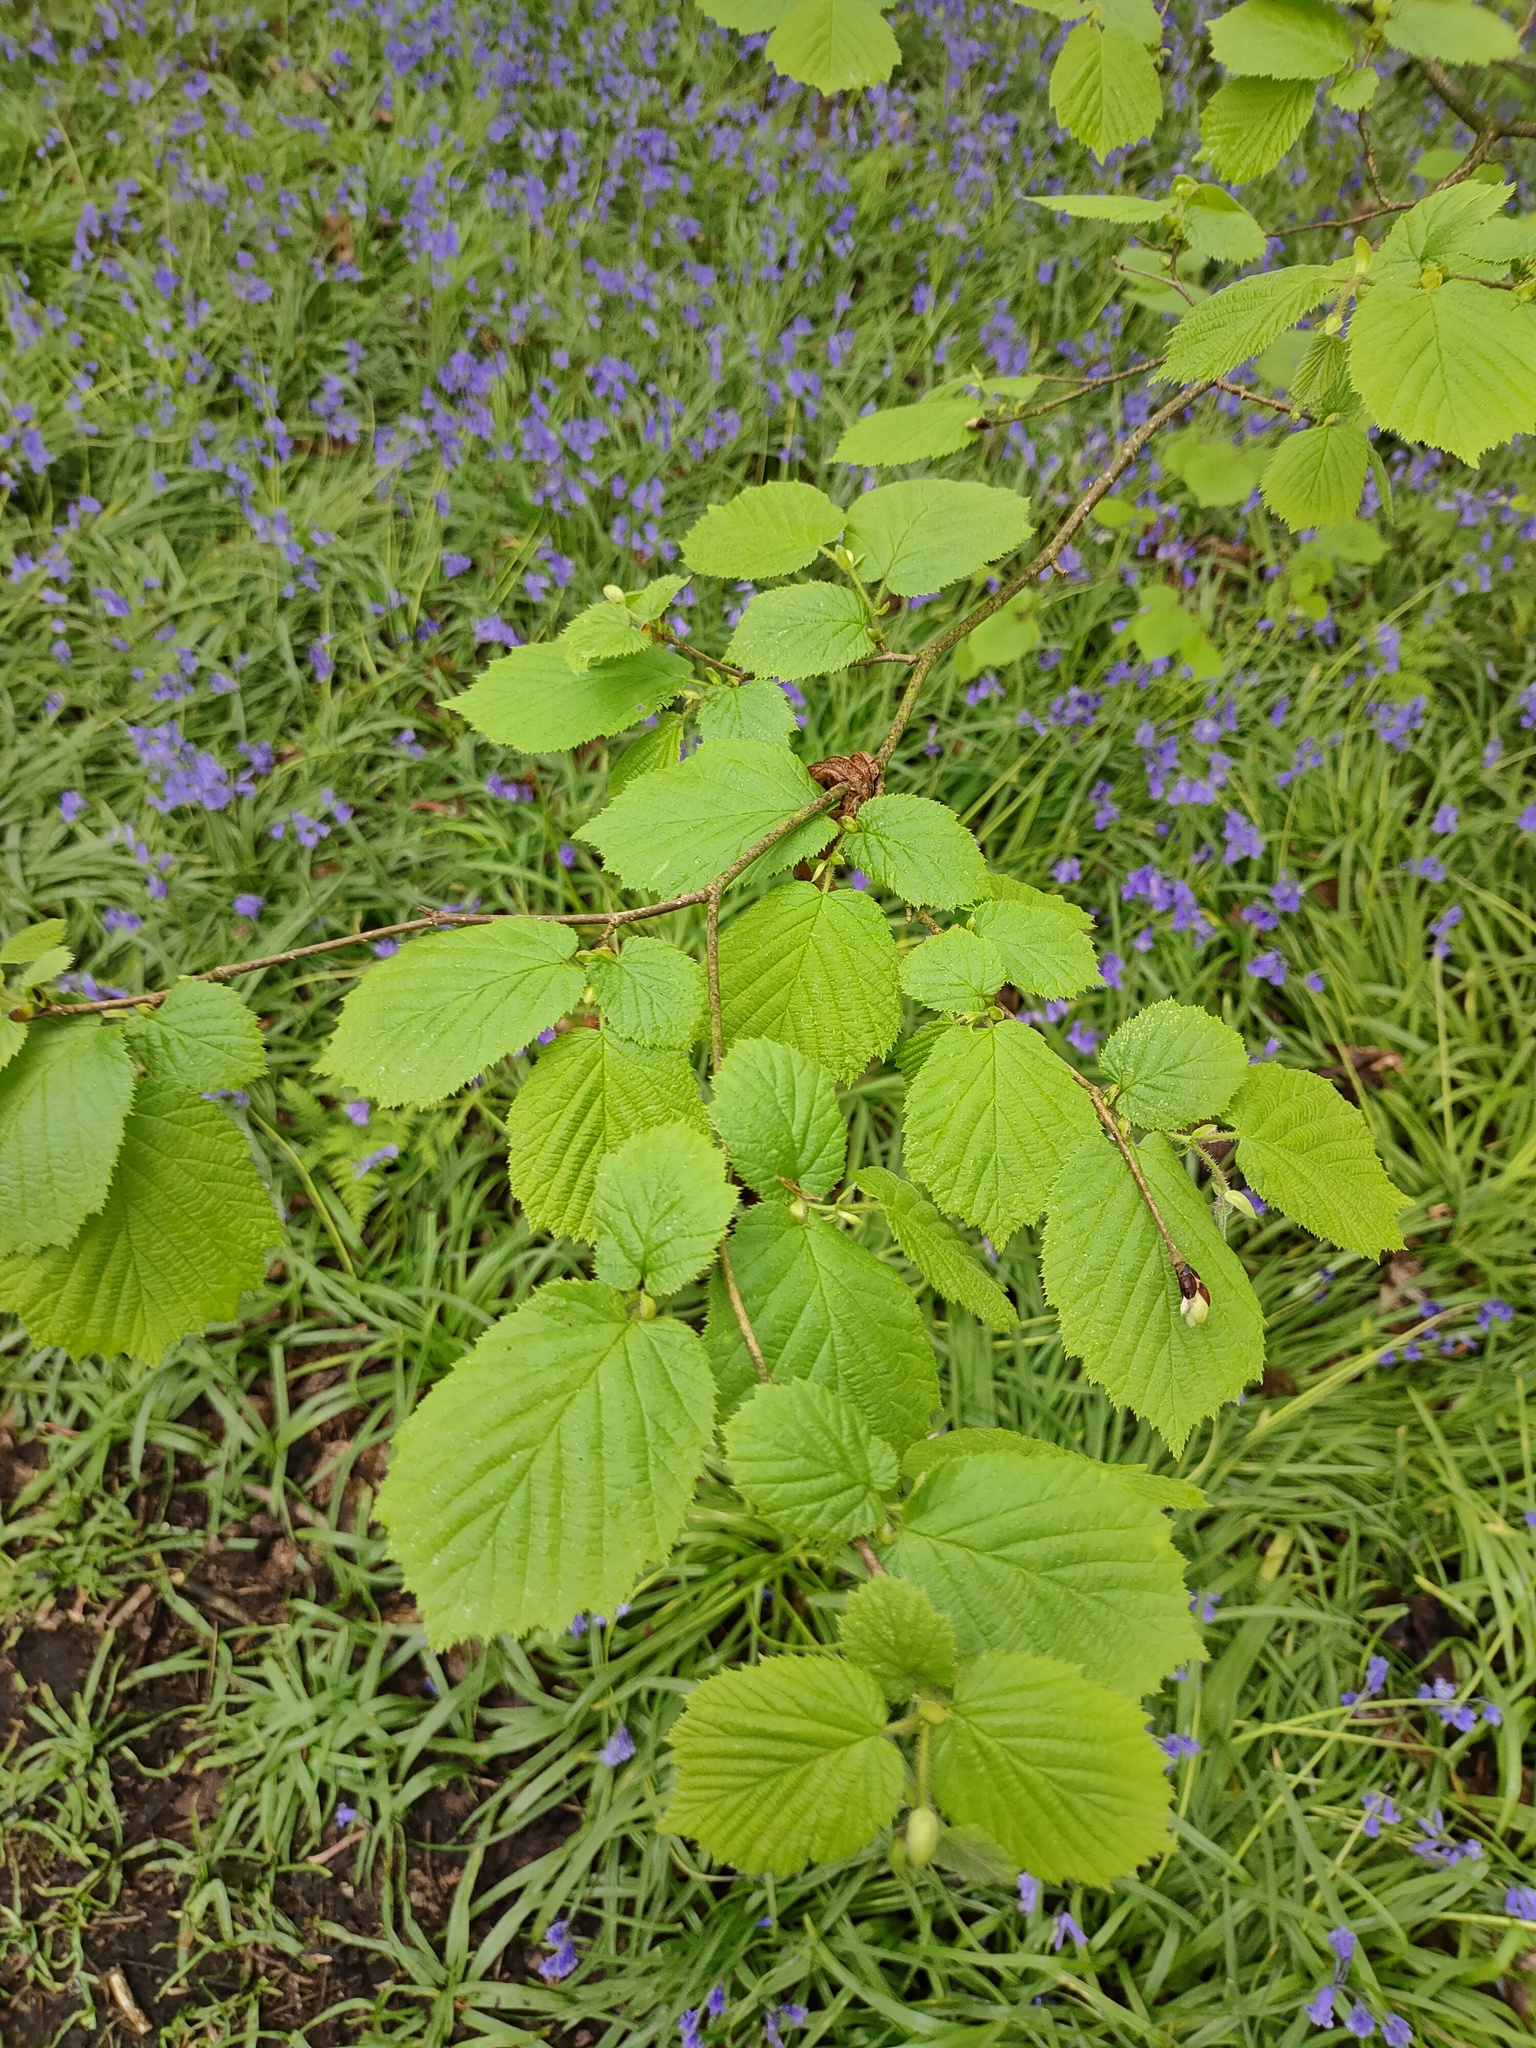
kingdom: Plantae
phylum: Tracheophyta
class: Magnoliopsida
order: Fagales
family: Betulaceae
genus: Corylus
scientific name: Corylus avellana
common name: European hazel
